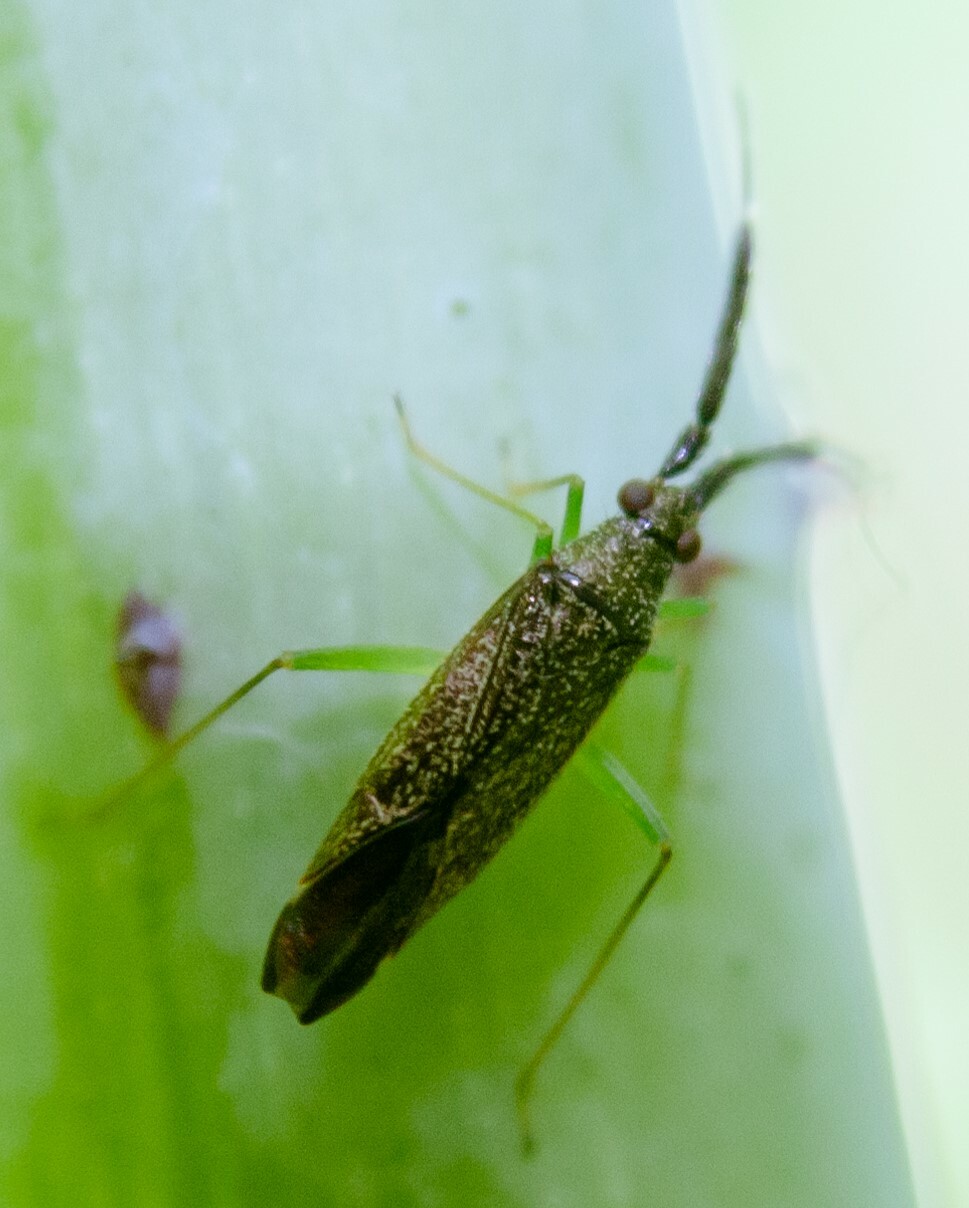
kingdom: Animalia
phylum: Arthropoda
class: Insecta
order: Hemiptera
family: Miridae
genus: Heterotoma
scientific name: Heterotoma planicornis
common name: Plant bug
